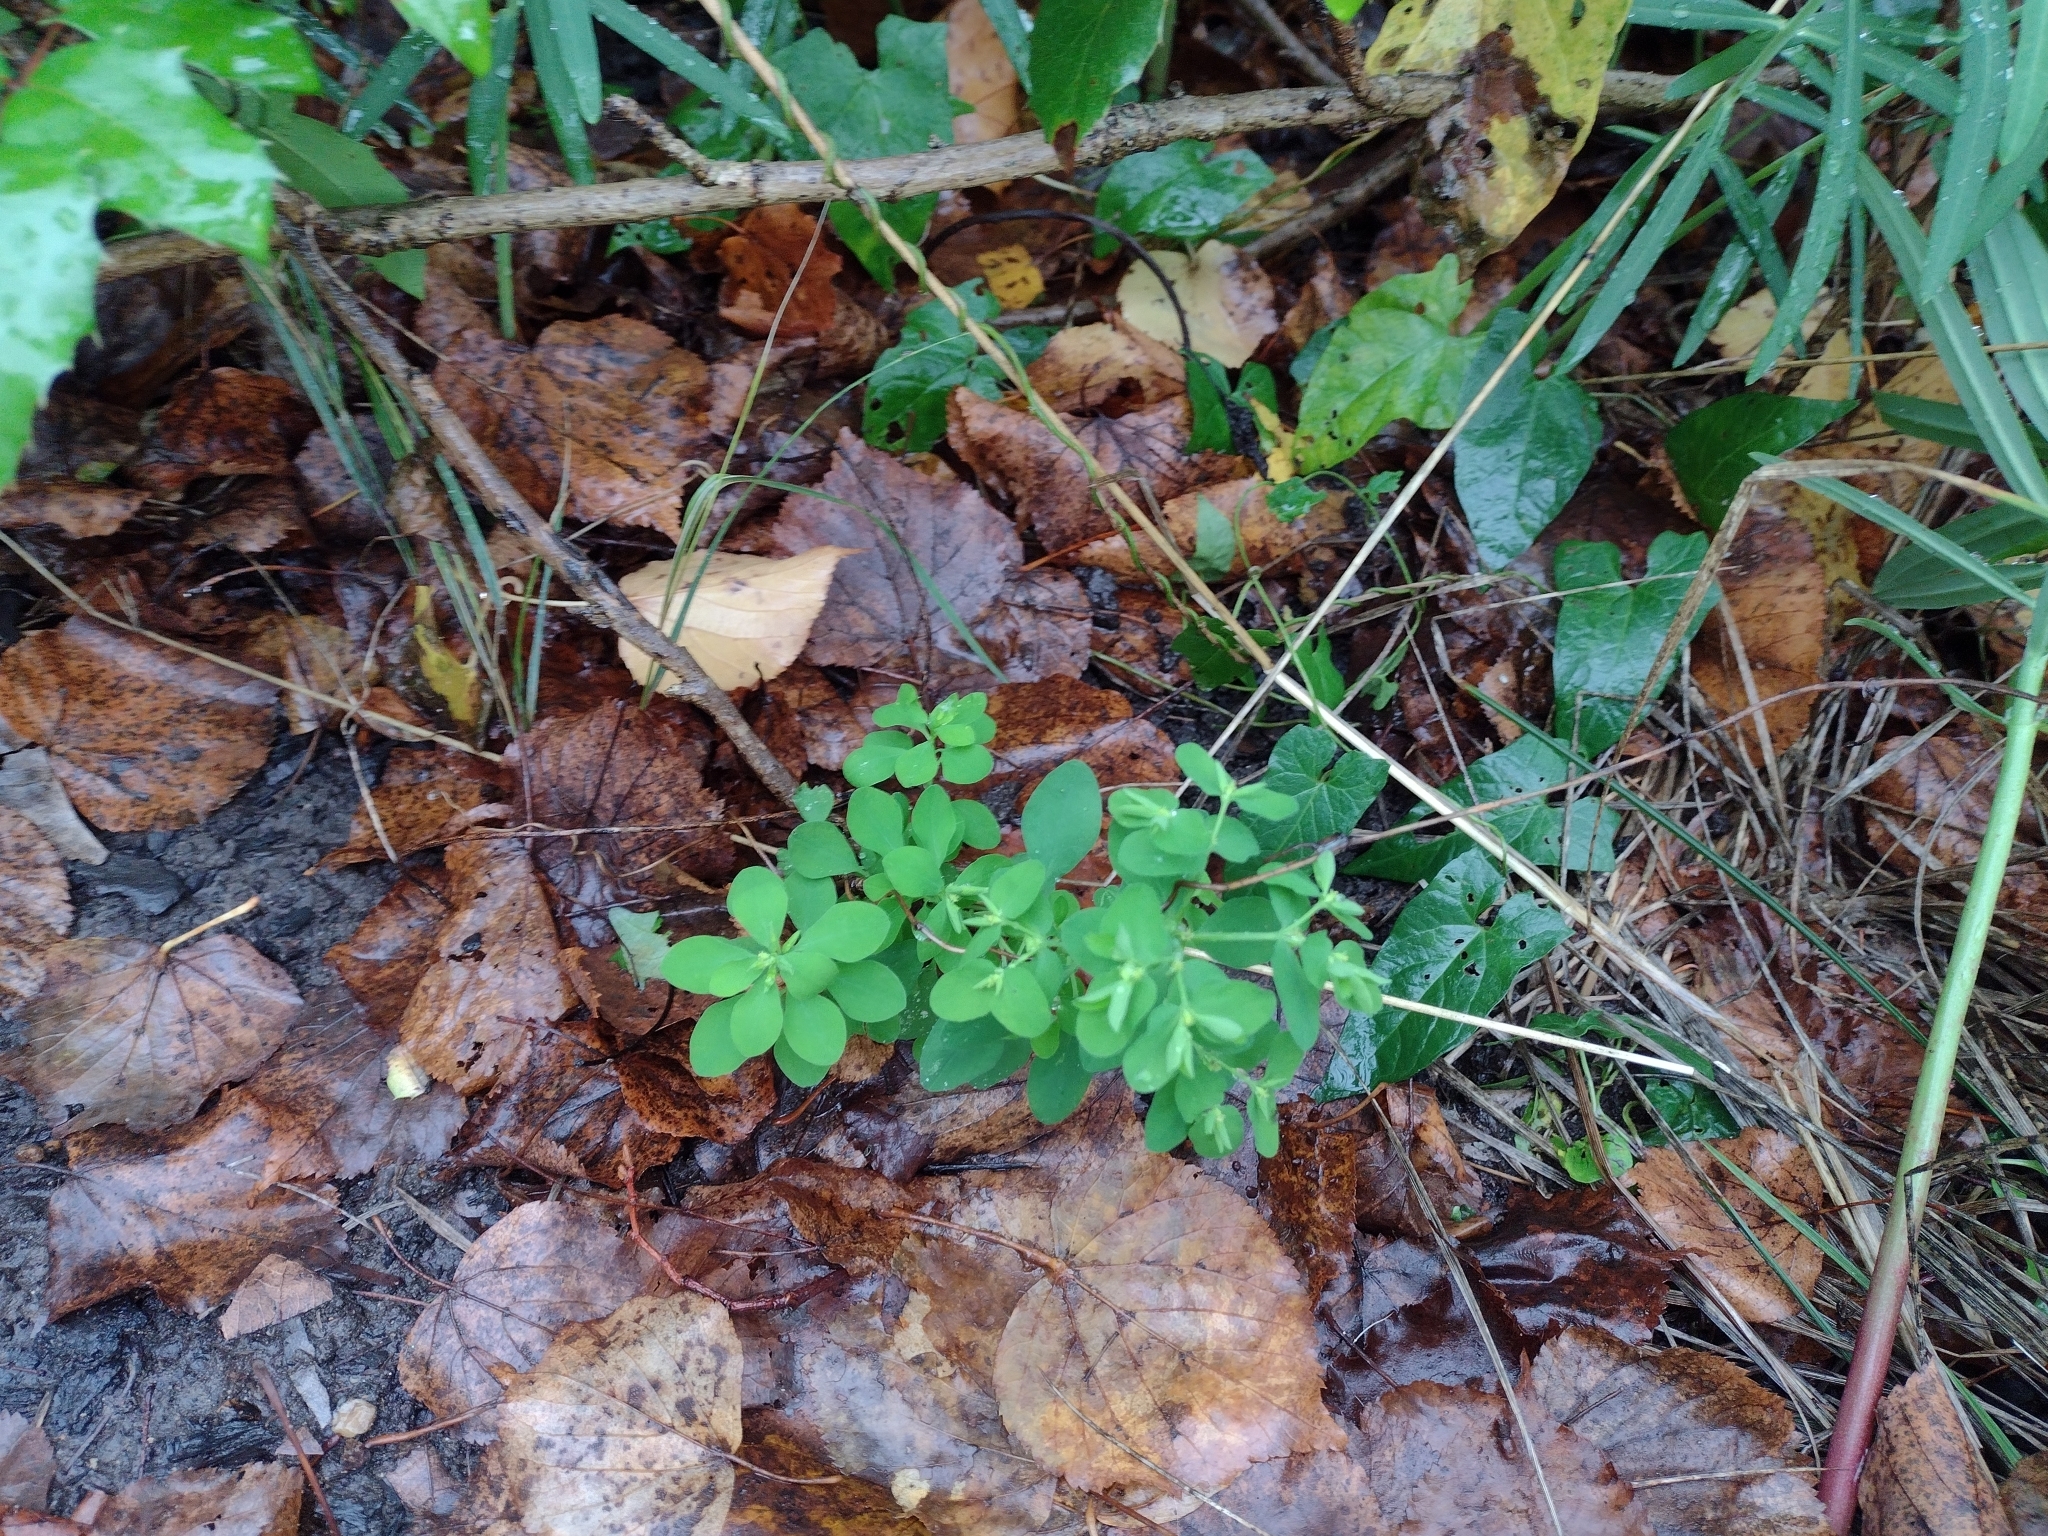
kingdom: Plantae
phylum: Tracheophyta
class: Magnoliopsida
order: Malpighiales
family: Euphorbiaceae
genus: Euphorbia
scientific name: Euphorbia peplus
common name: Petty spurge
